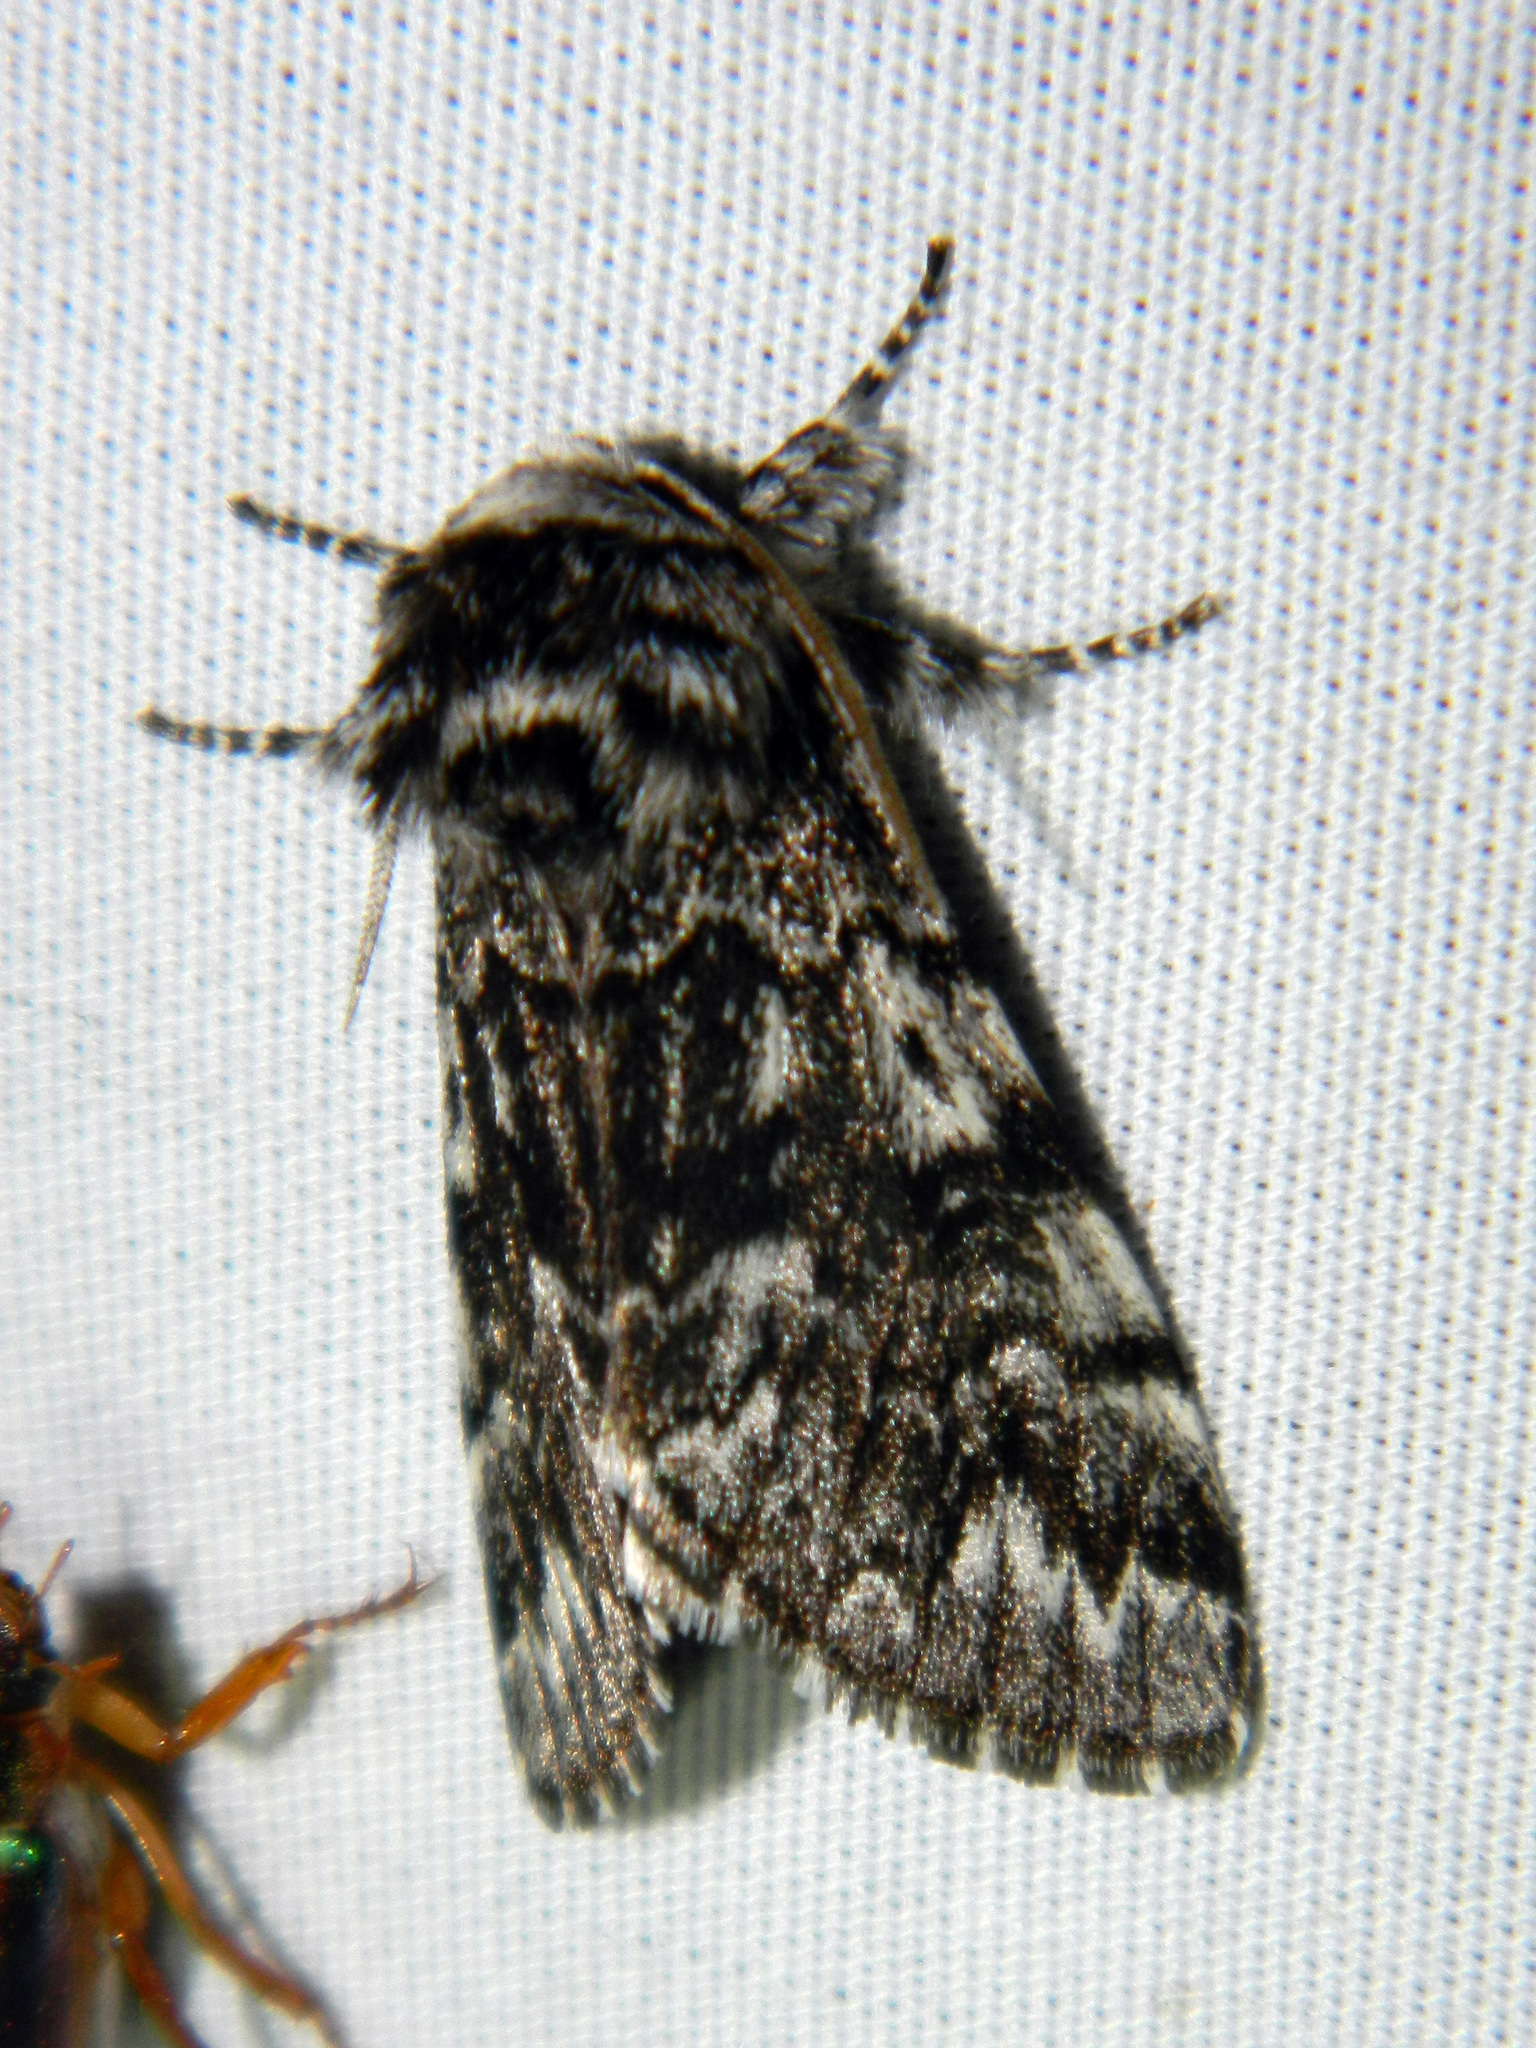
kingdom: Animalia
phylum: Arthropoda
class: Insecta
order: Lepidoptera
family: Noctuidae
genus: Panthea
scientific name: Panthea acronyctoides
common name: Black zigzag moth
